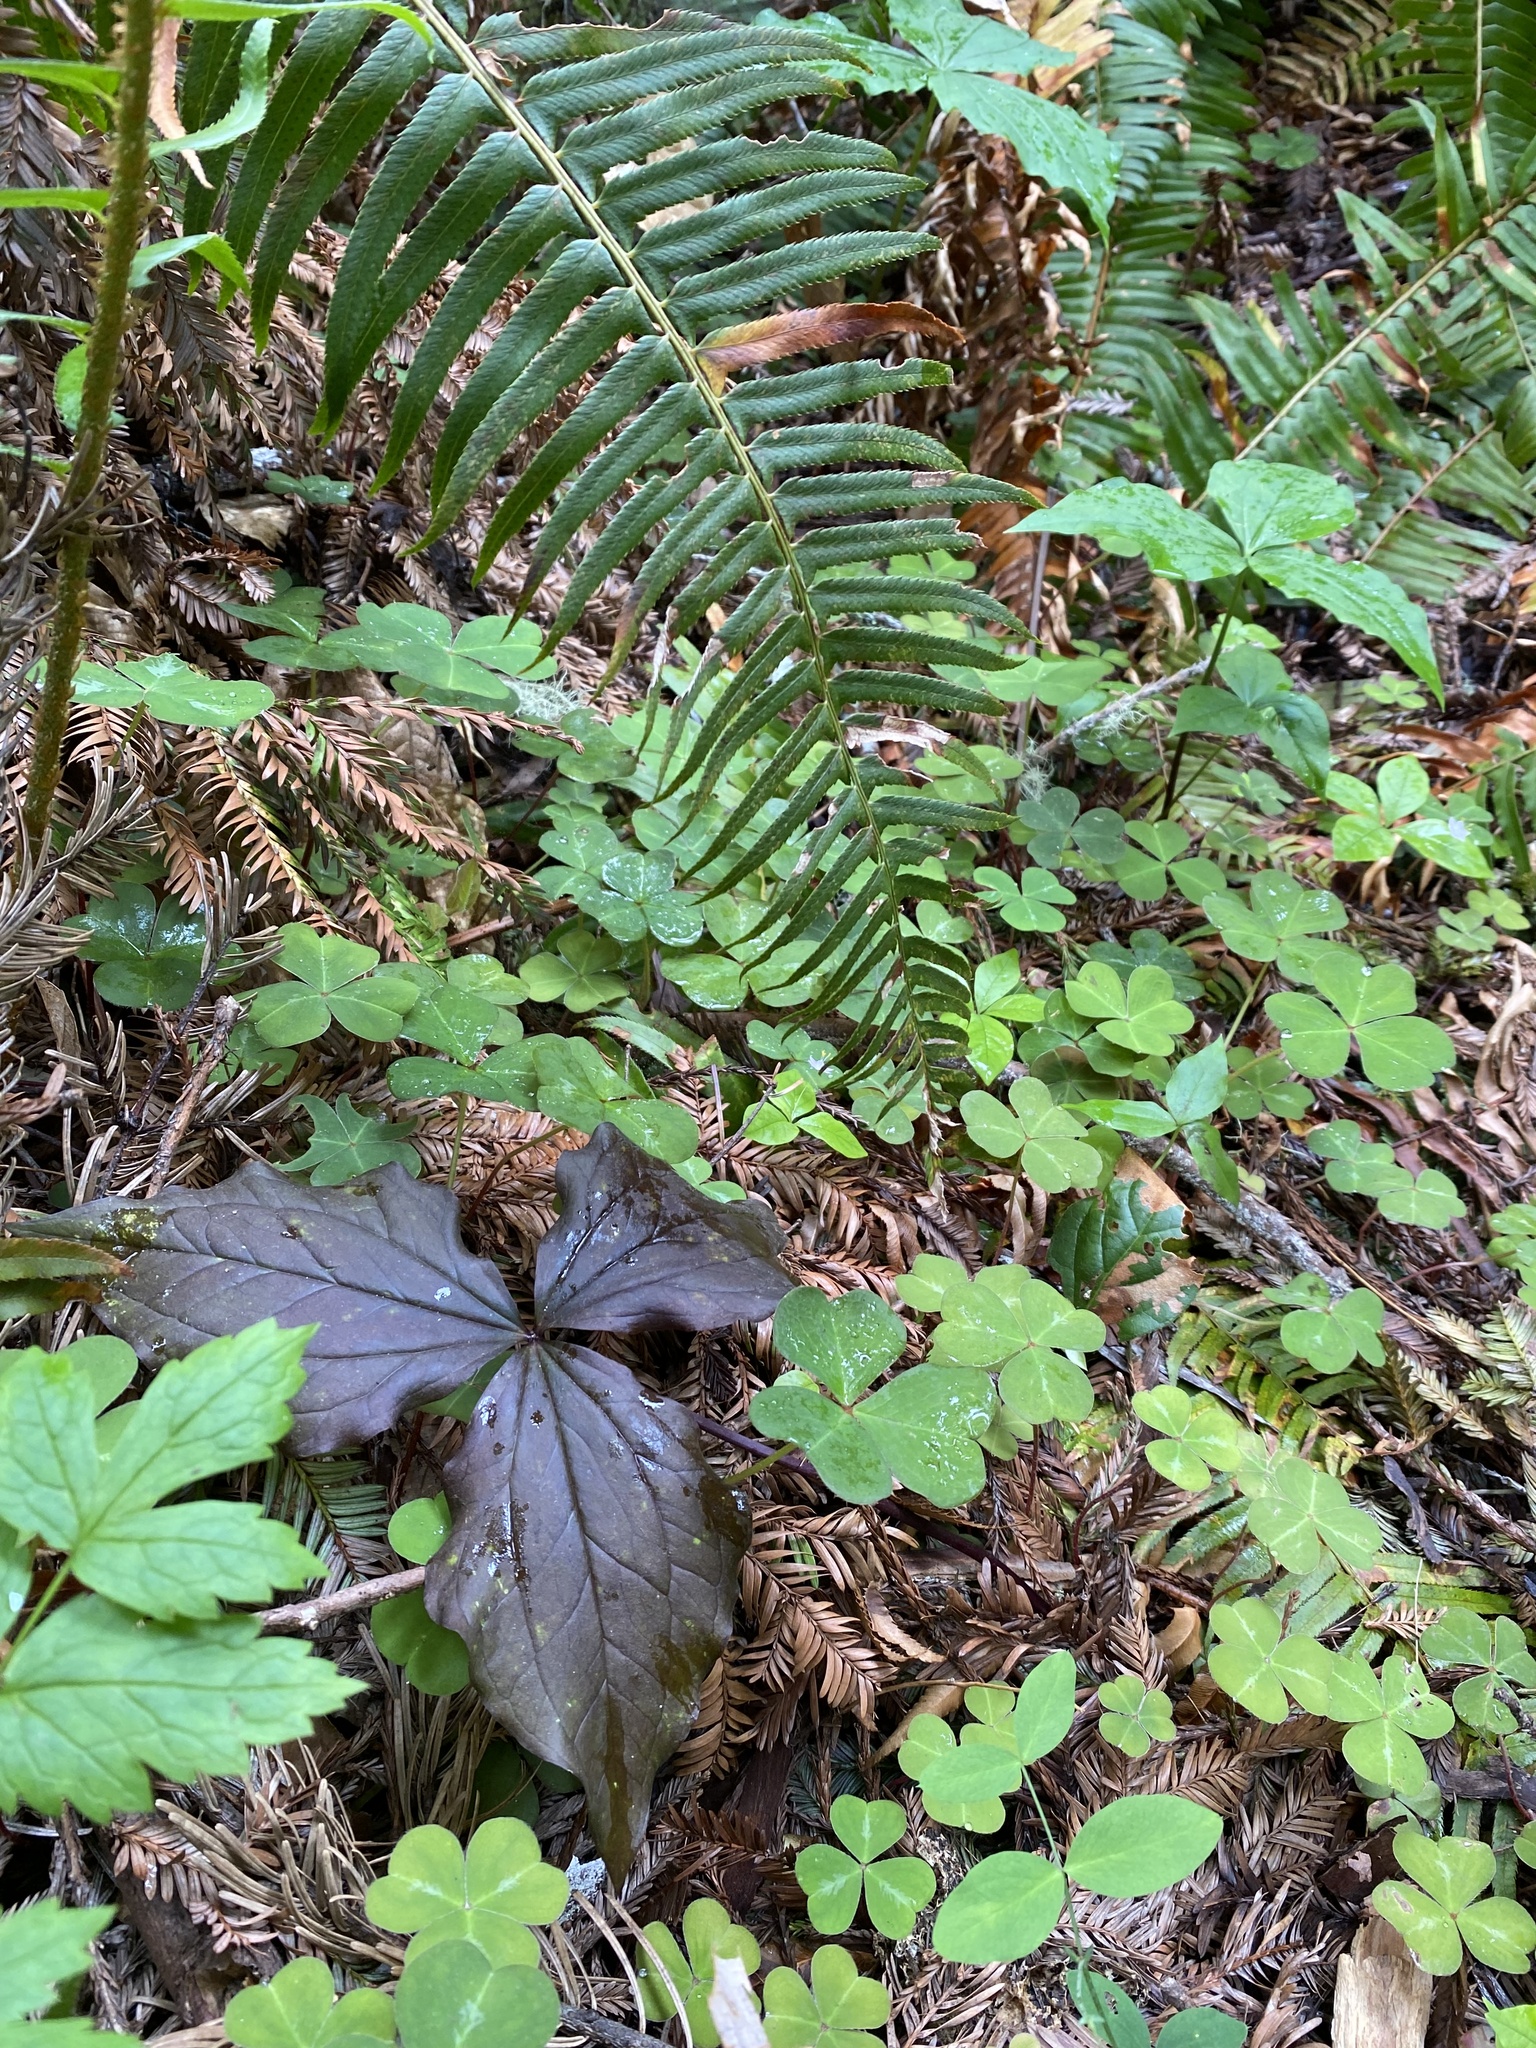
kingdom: Plantae
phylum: Tracheophyta
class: Liliopsida
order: Liliales
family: Melanthiaceae
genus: Trillium
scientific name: Trillium ovatum
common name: Pacific trillium
